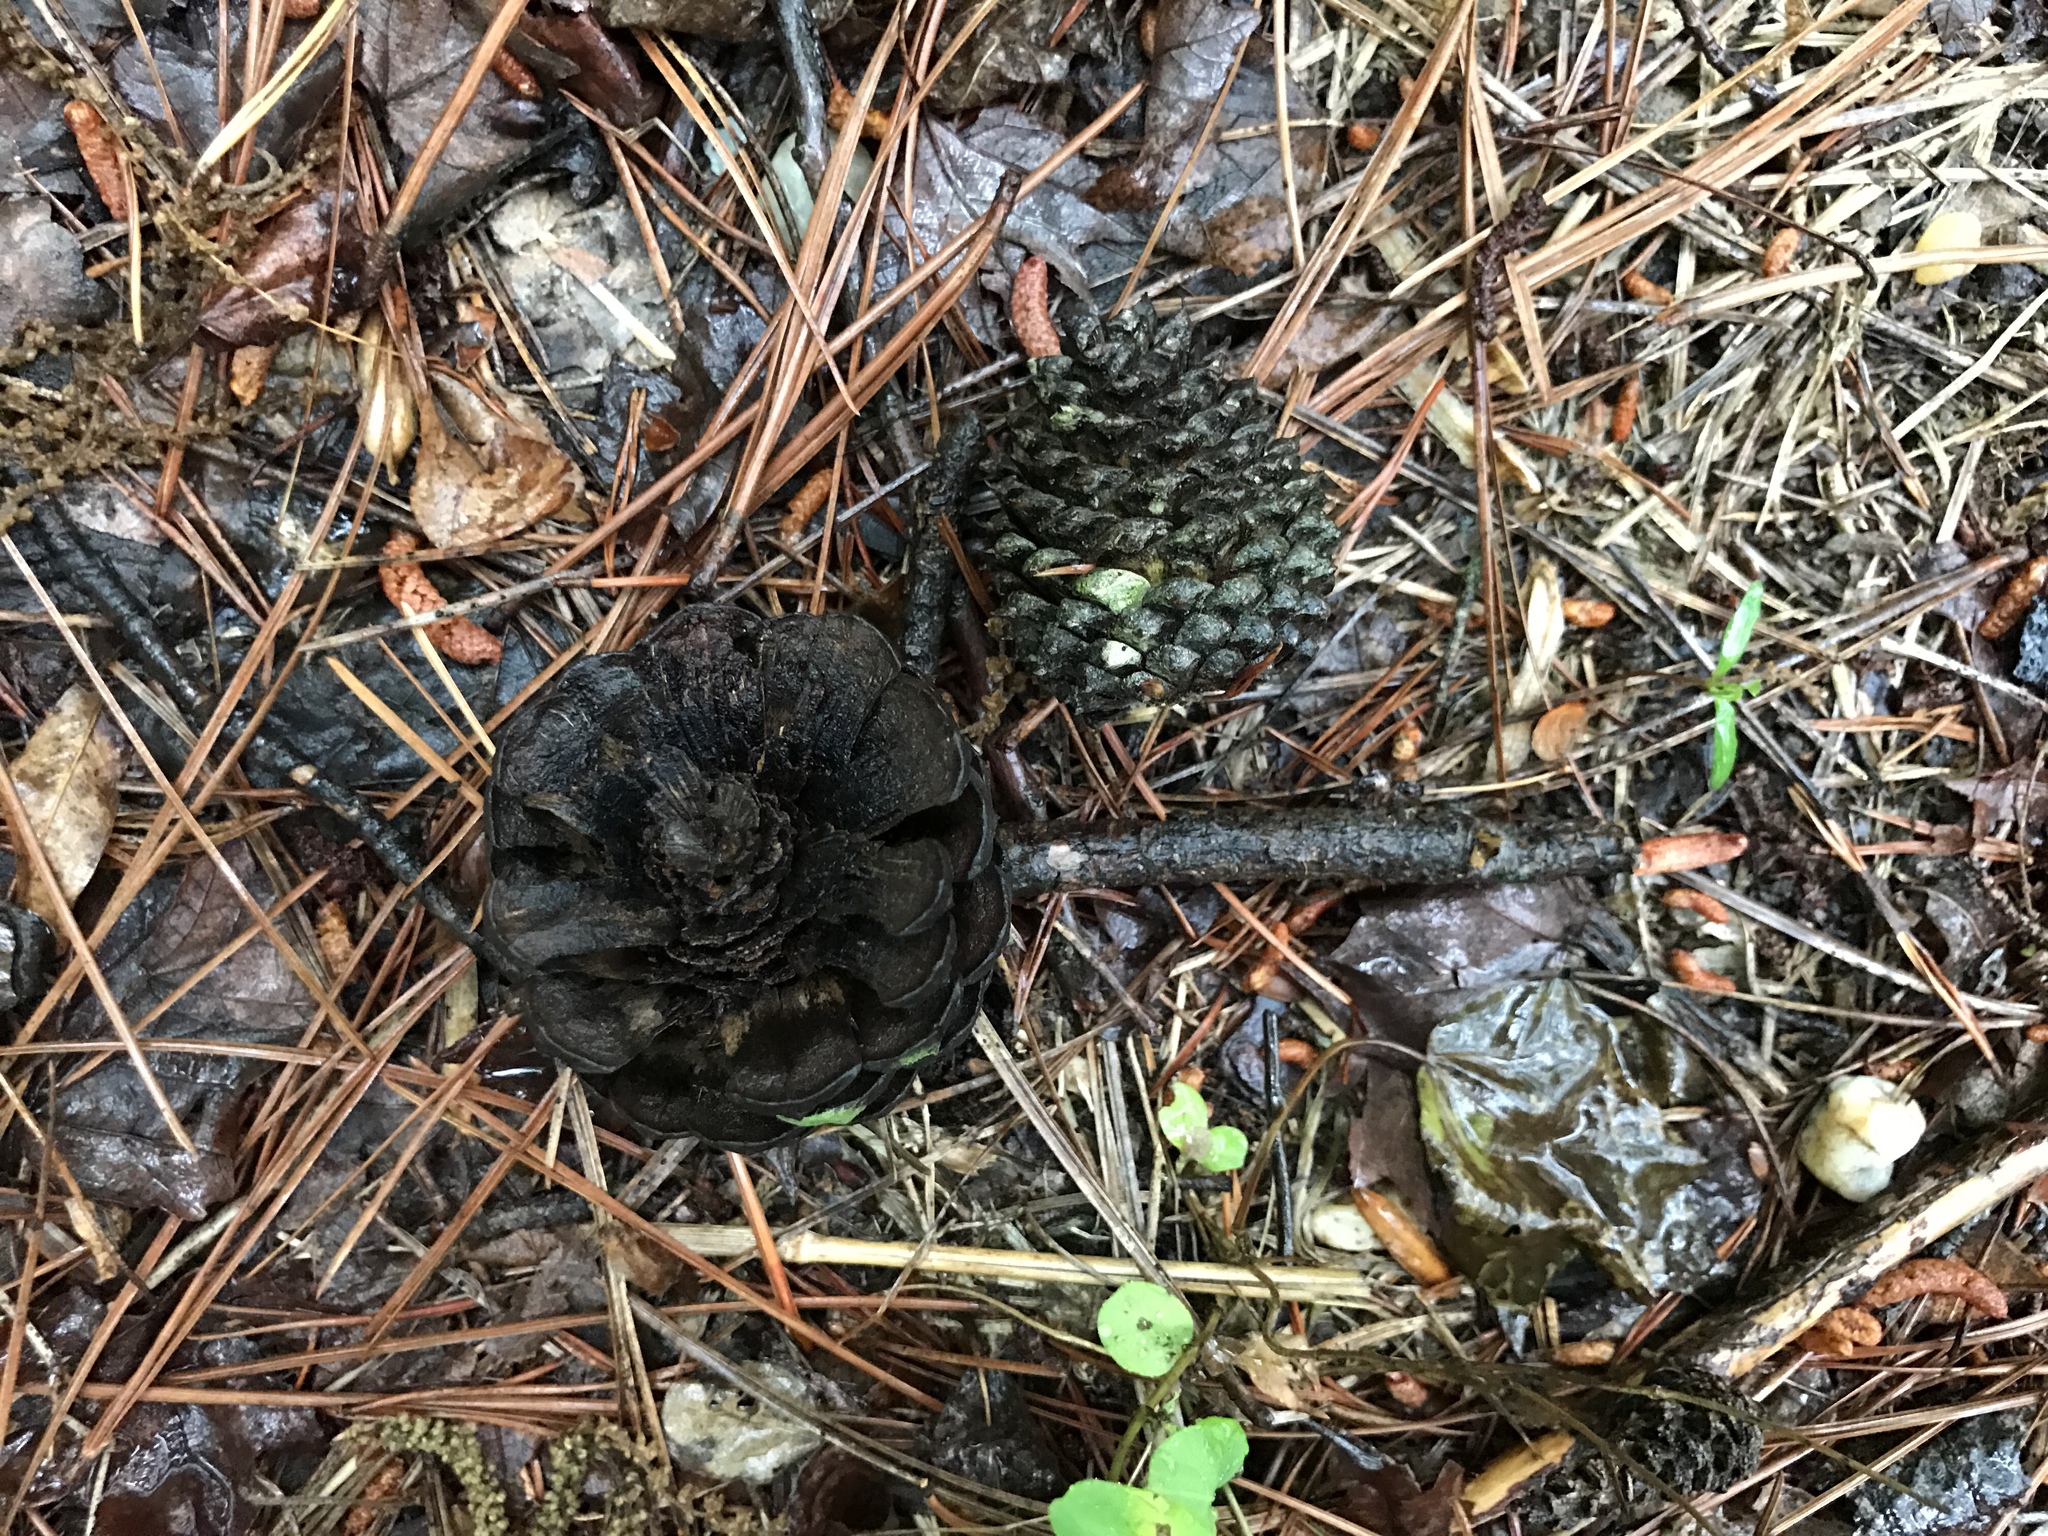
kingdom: Plantae
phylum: Tracheophyta
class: Pinopsida
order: Pinales
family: Pinaceae
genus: Pinus
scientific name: Pinus rigida
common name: Pitch pine
